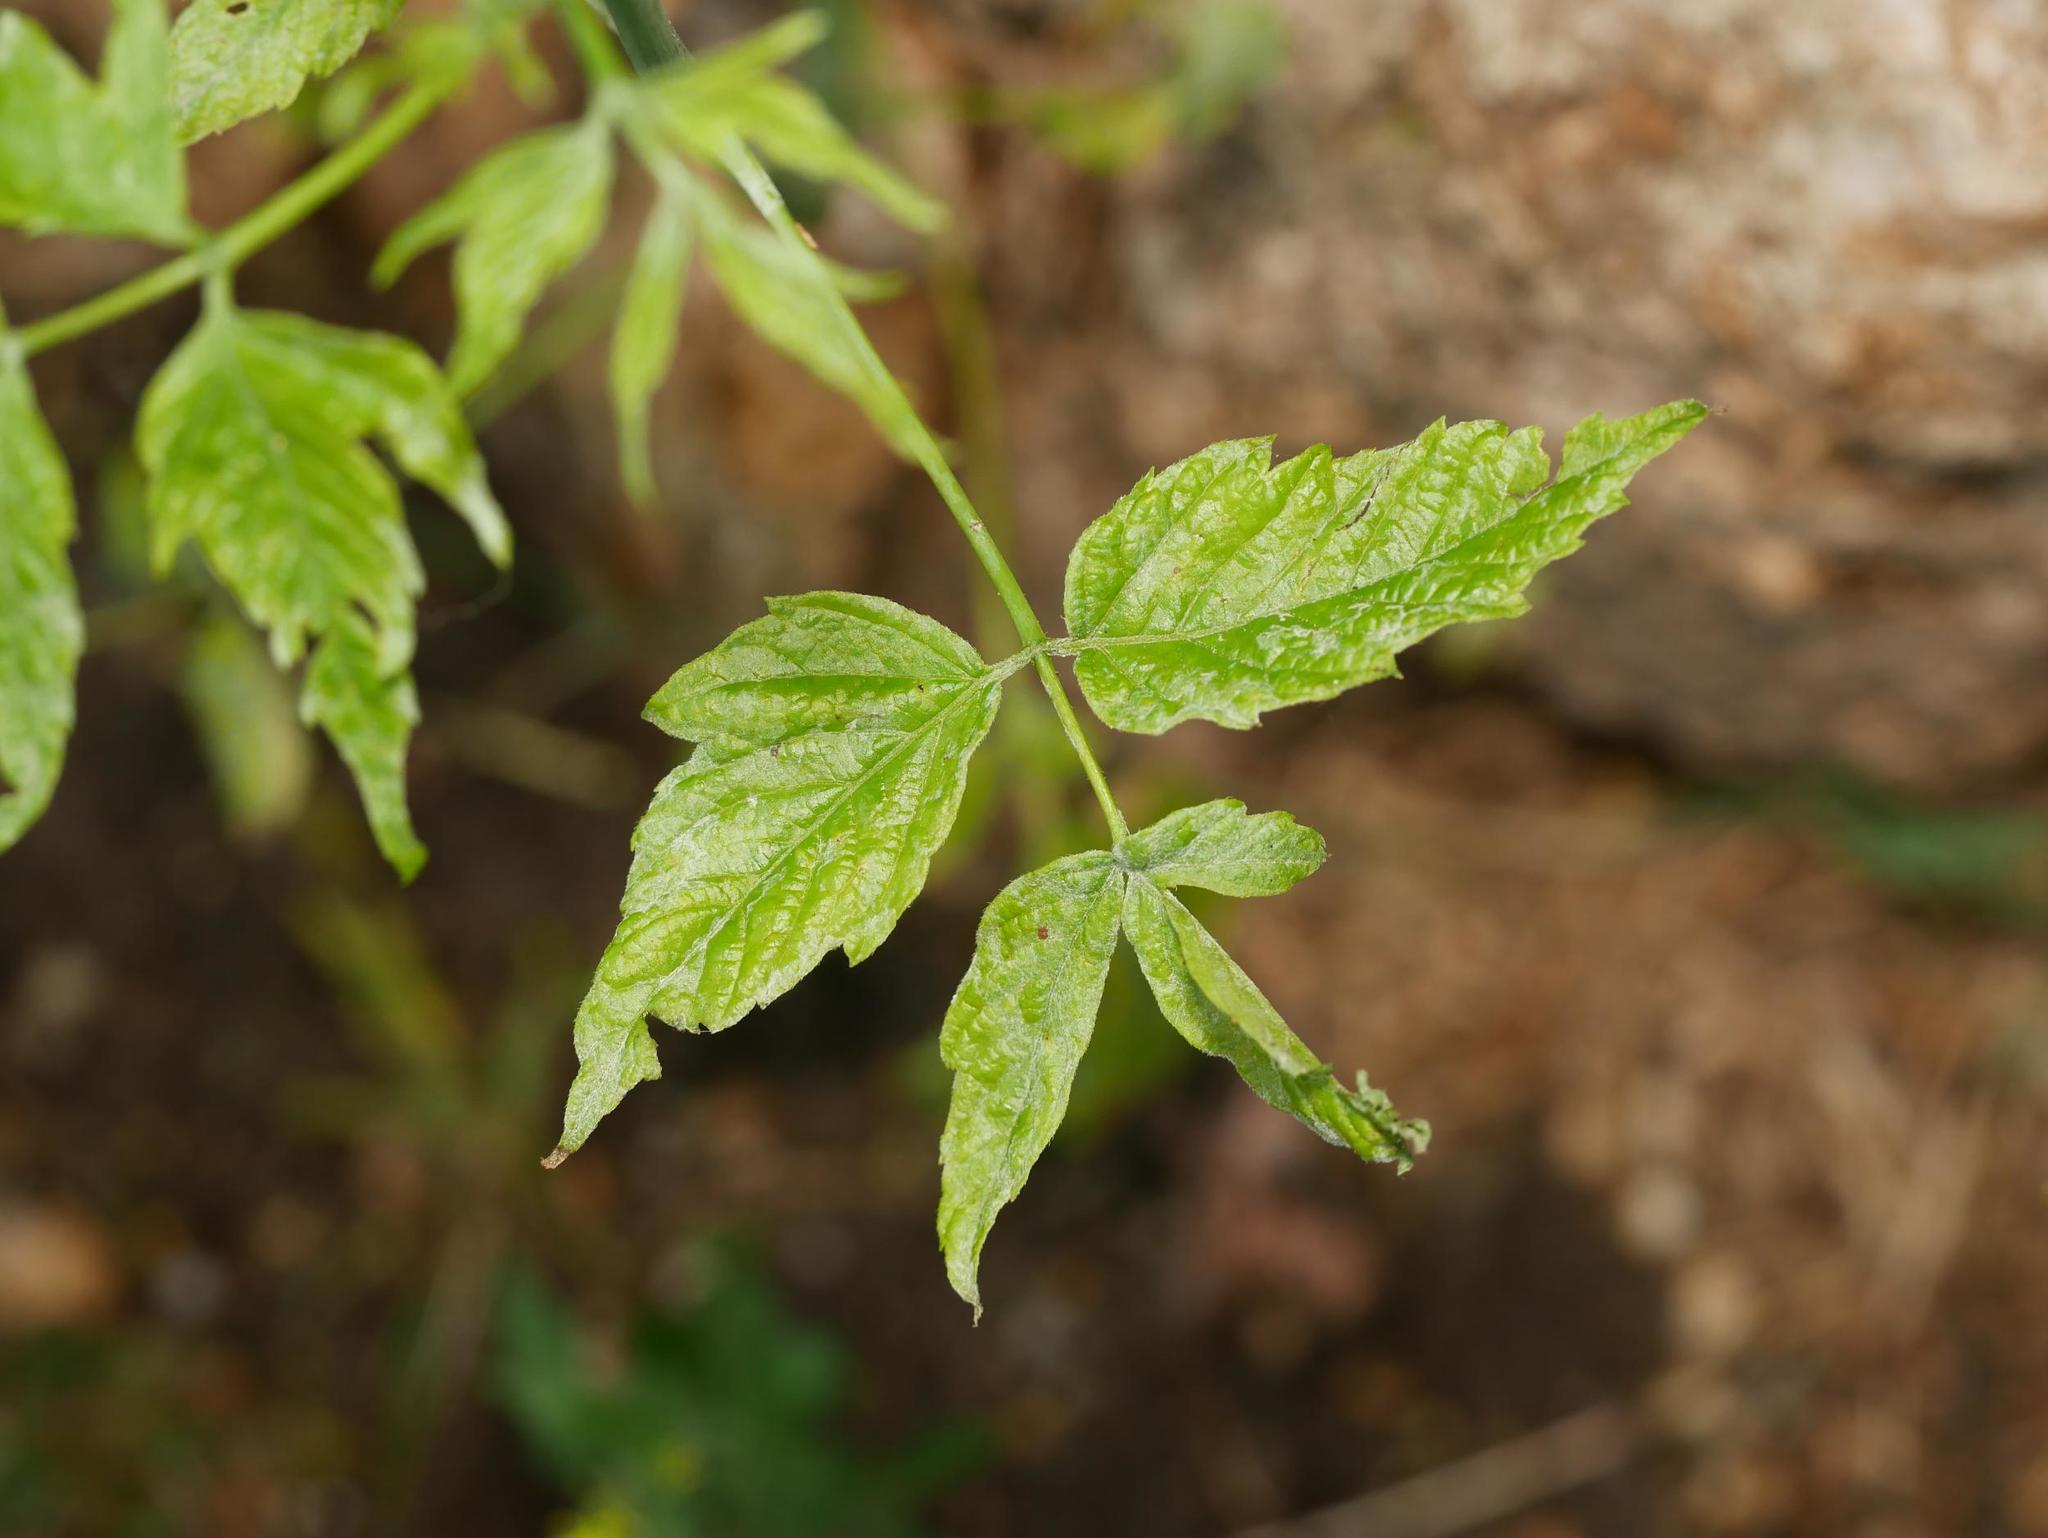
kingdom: Plantae
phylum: Tracheophyta
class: Magnoliopsida
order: Sapindales
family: Sapindaceae
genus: Acer
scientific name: Acer negundo
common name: Ashleaf maple
